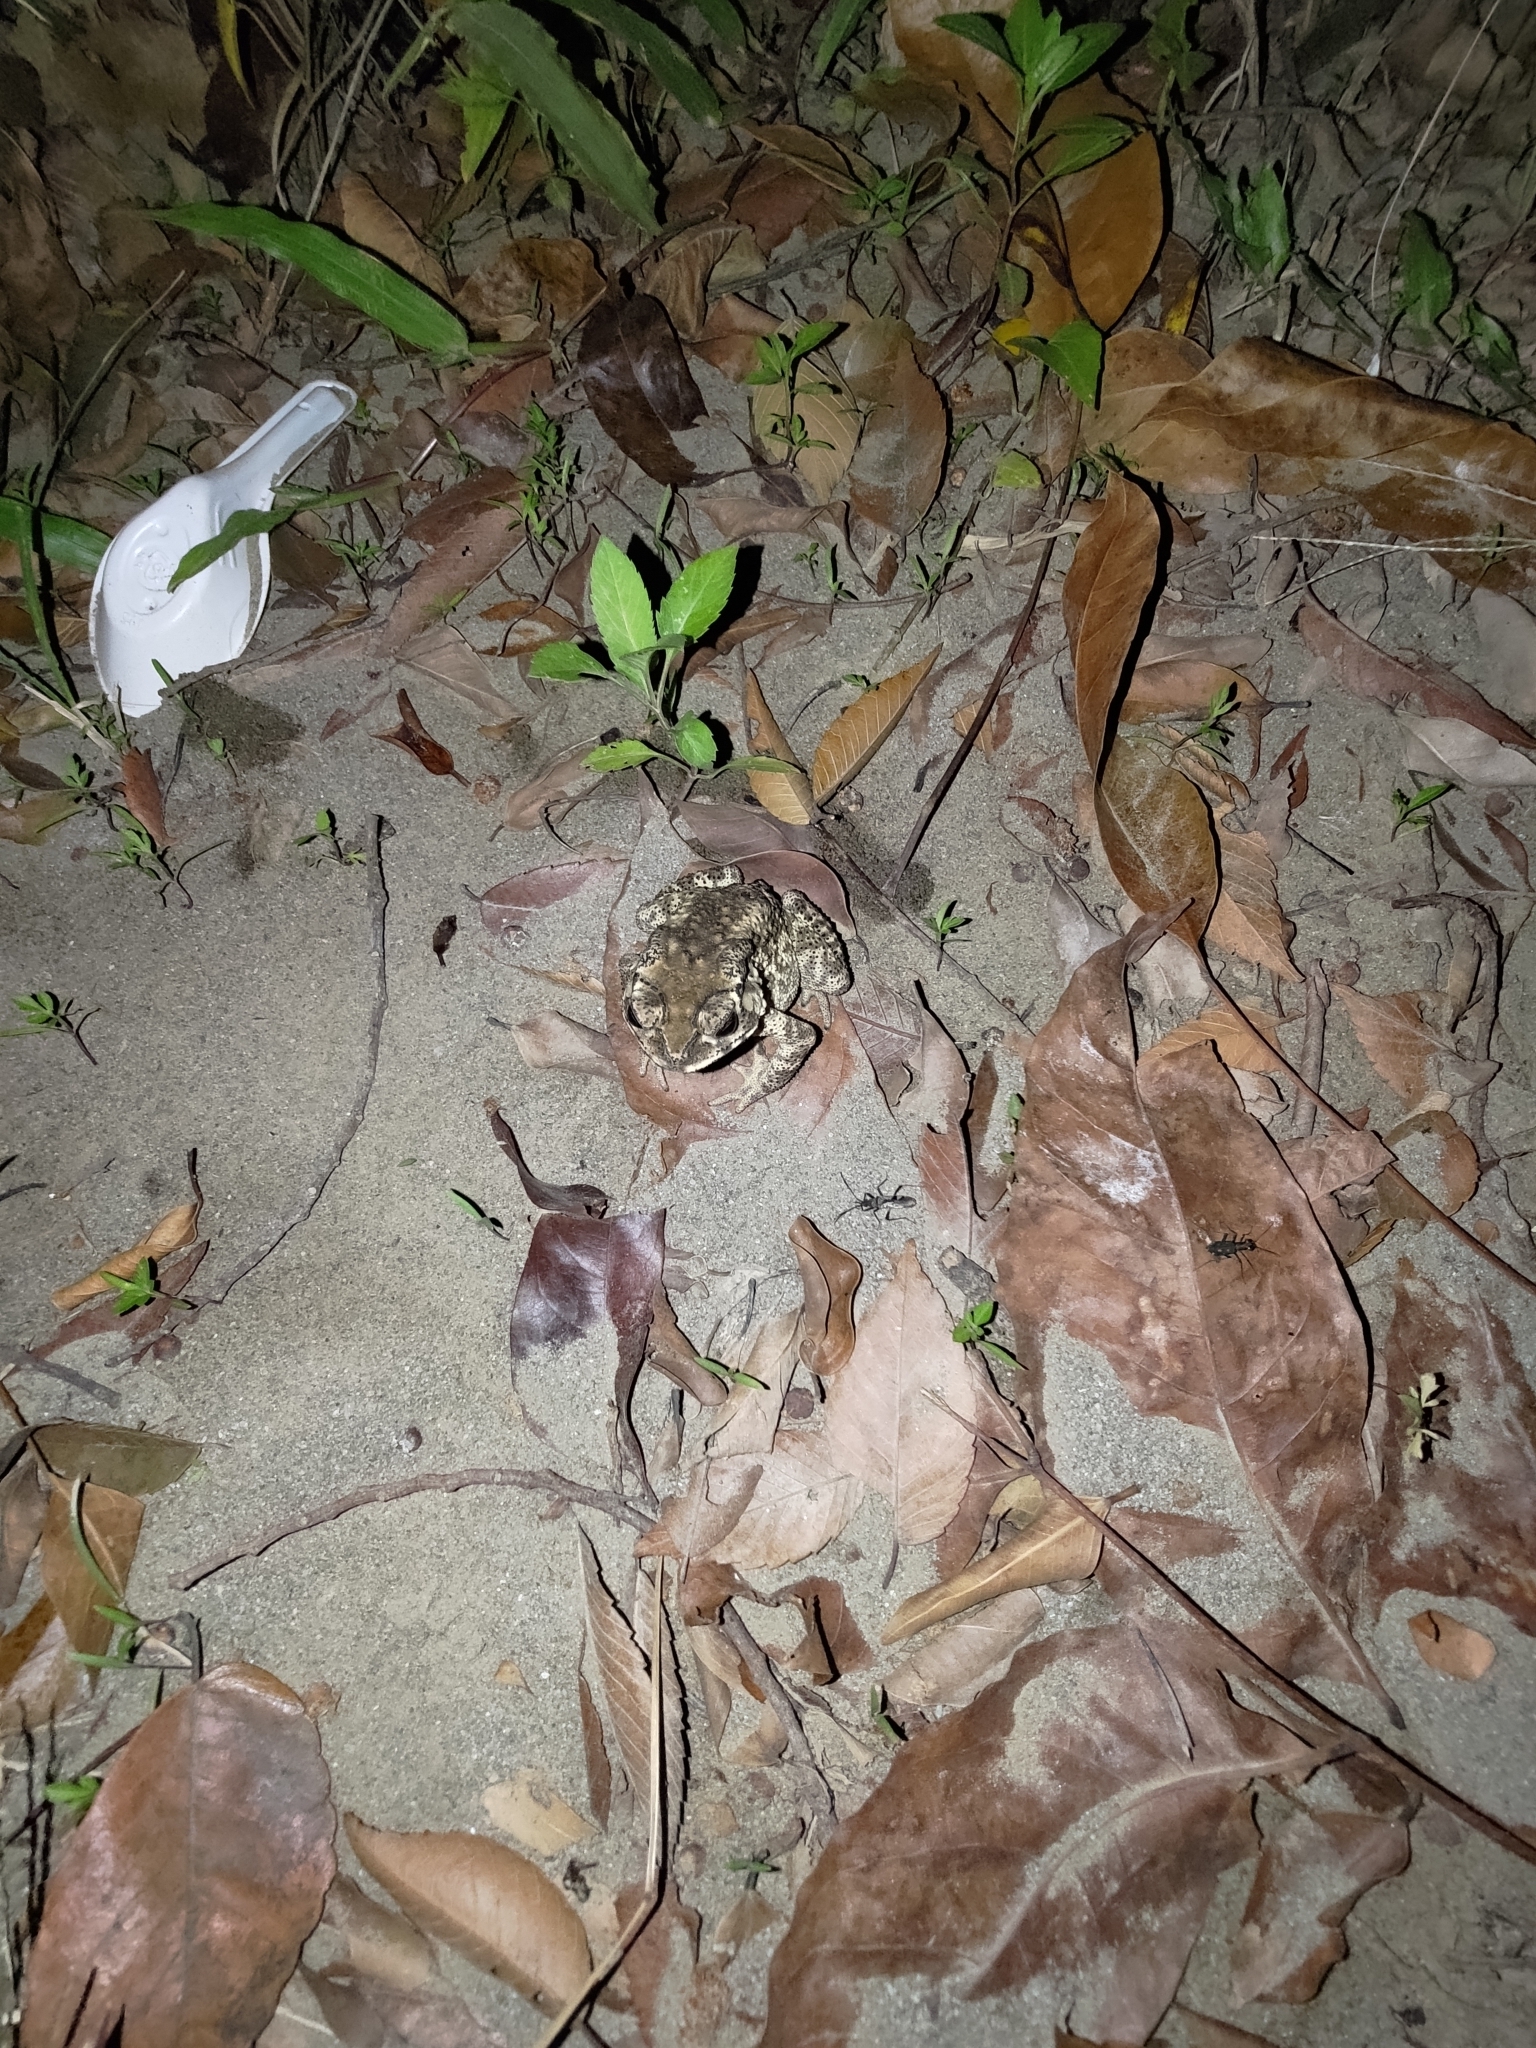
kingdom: Animalia
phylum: Chordata
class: Amphibia
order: Anura
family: Bufonidae
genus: Duttaphrynus
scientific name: Duttaphrynus melanostictus
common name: Common sunda toad
